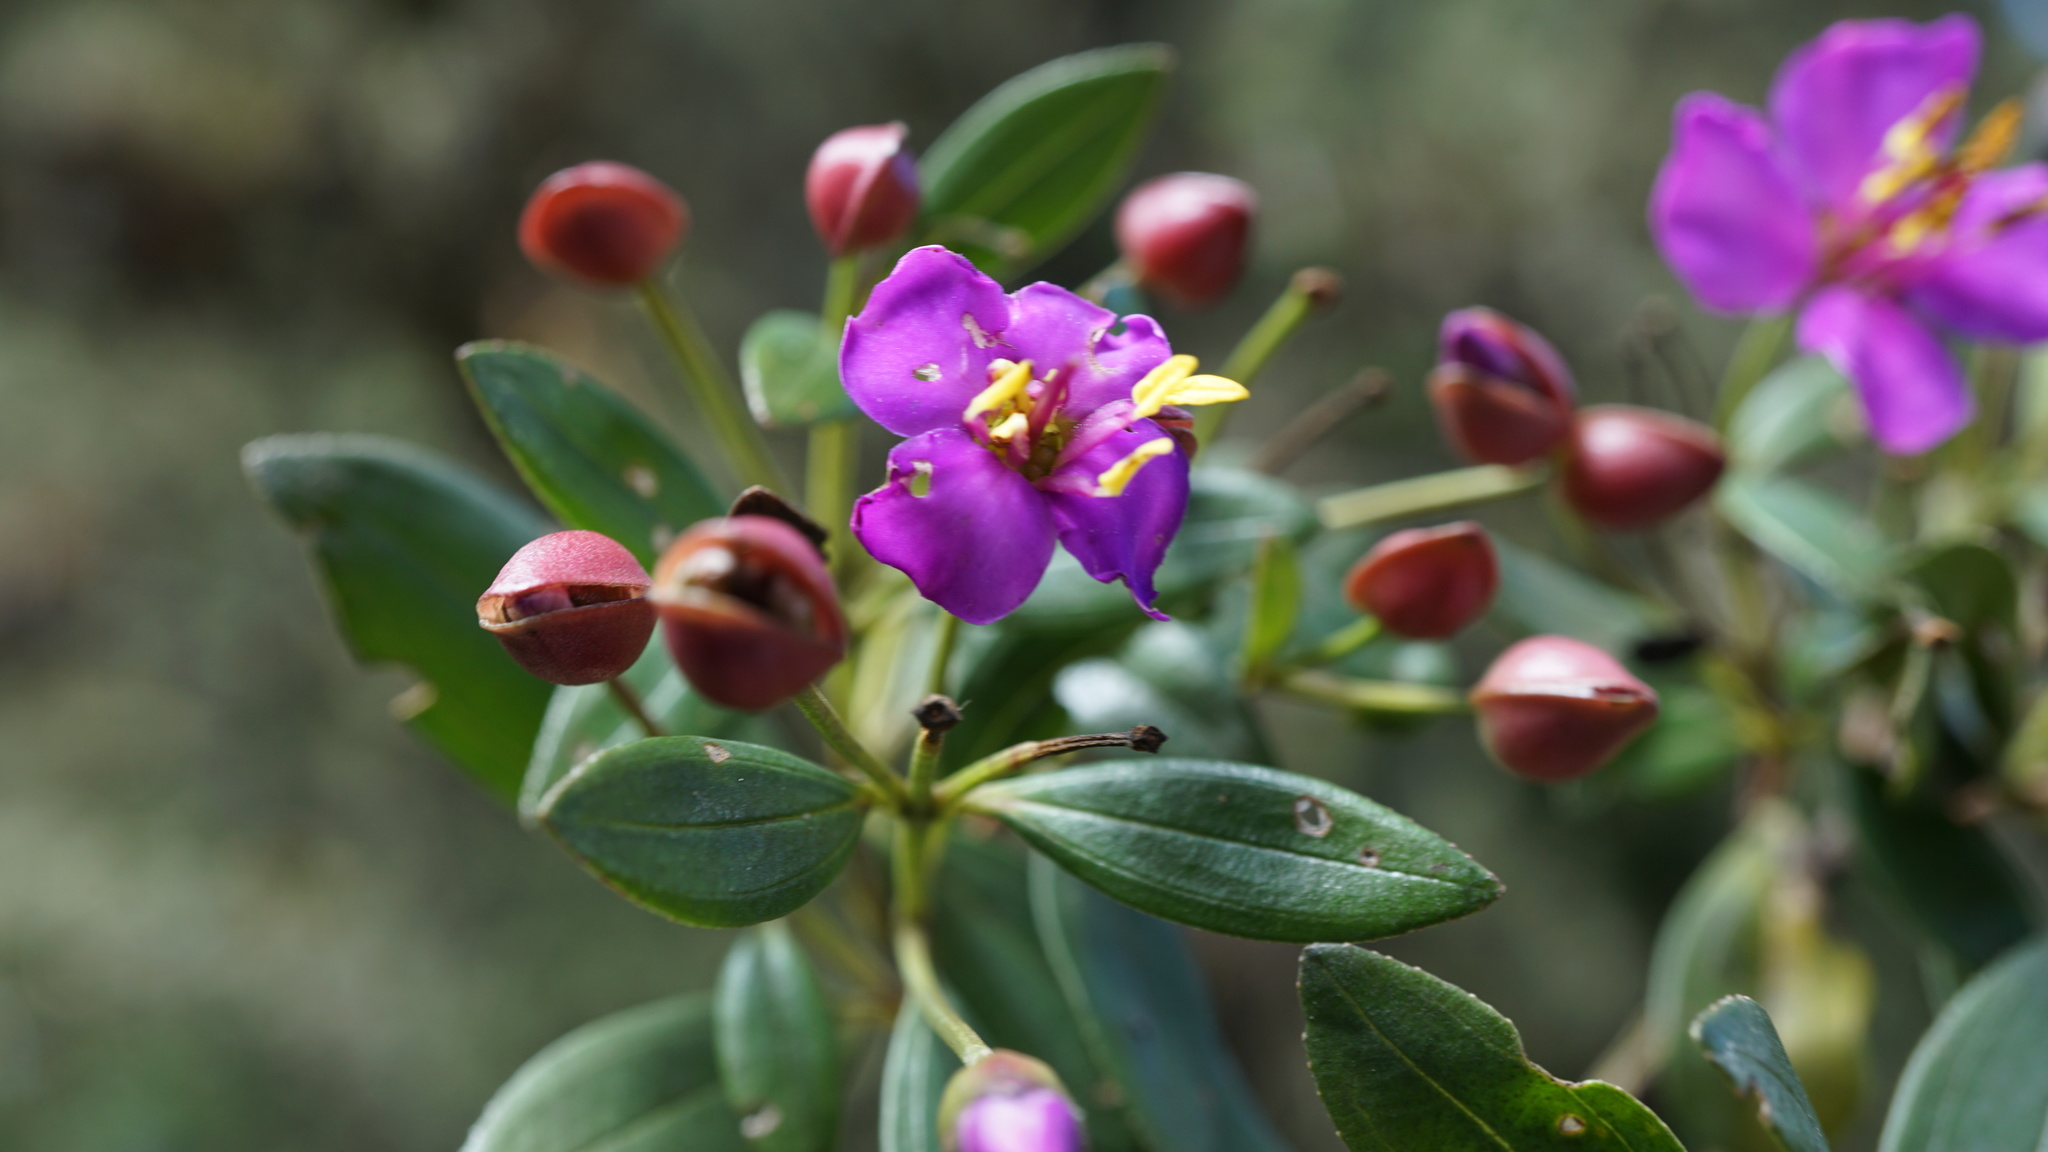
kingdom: Plantae
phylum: Tracheophyta
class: Magnoliopsida
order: Myrtales
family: Melastomataceae
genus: Bucquetia
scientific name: Bucquetia glutinosa
